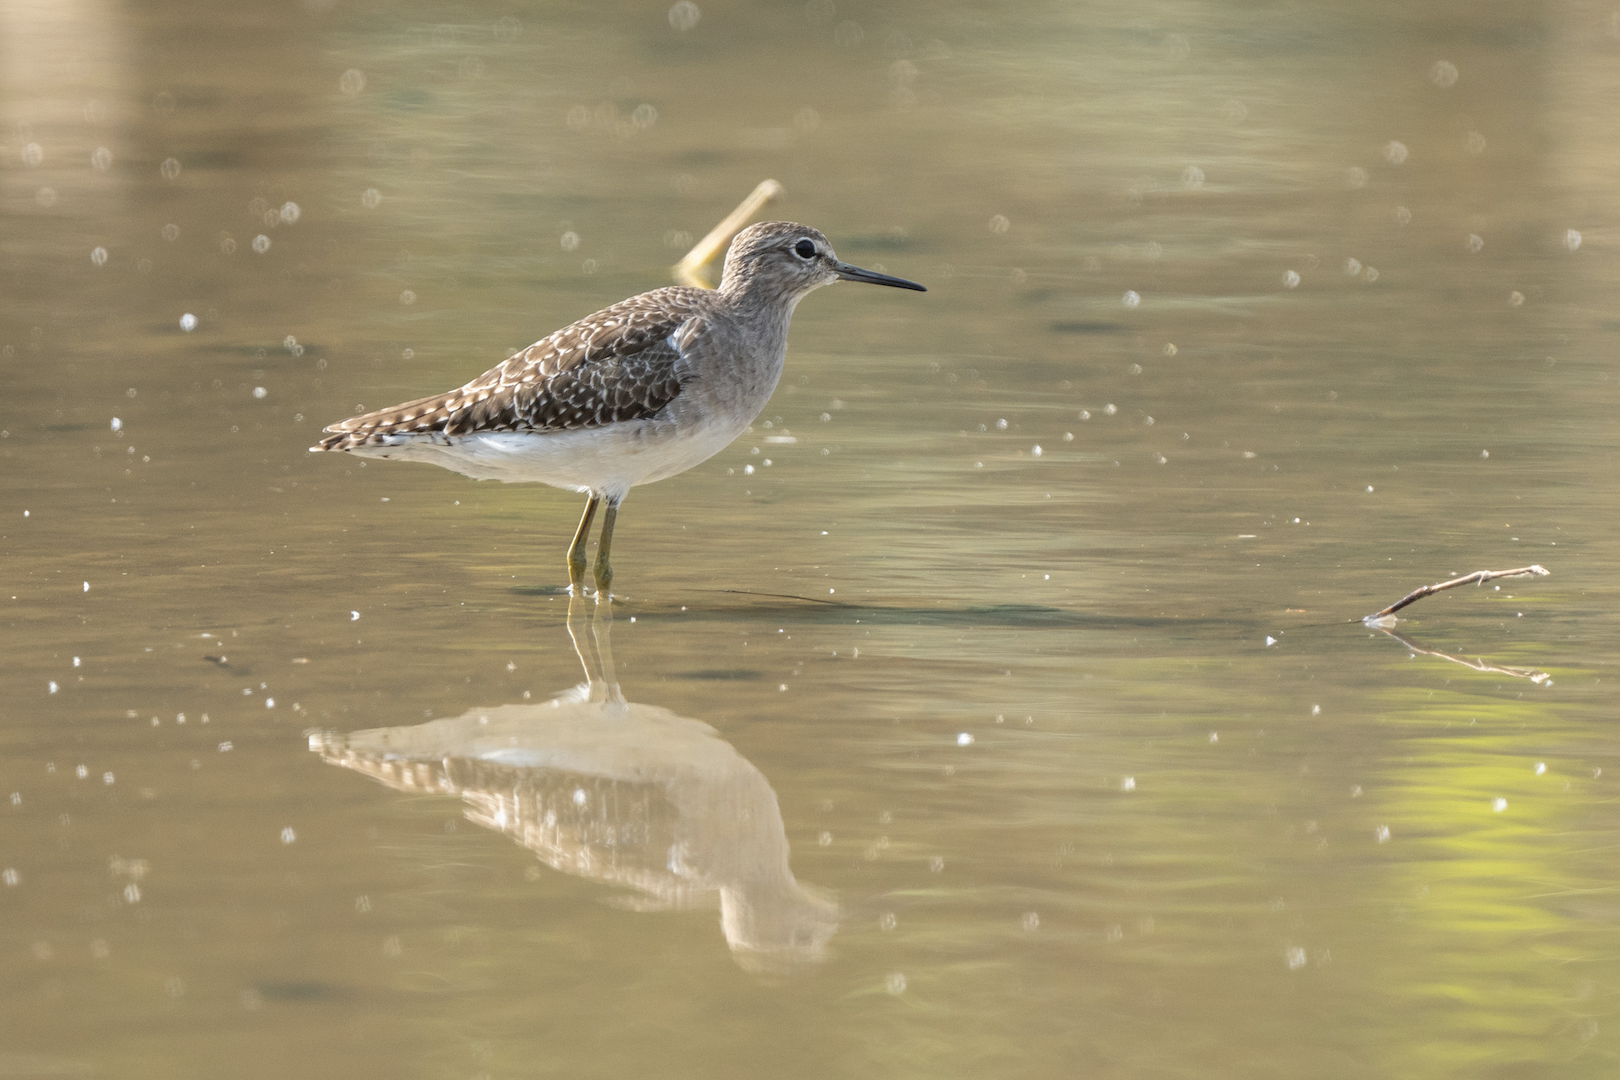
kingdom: Animalia
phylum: Chordata
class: Aves
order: Charadriiformes
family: Scolopacidae
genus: Tringa
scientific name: Tringa glareola
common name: Wood sandpiper
